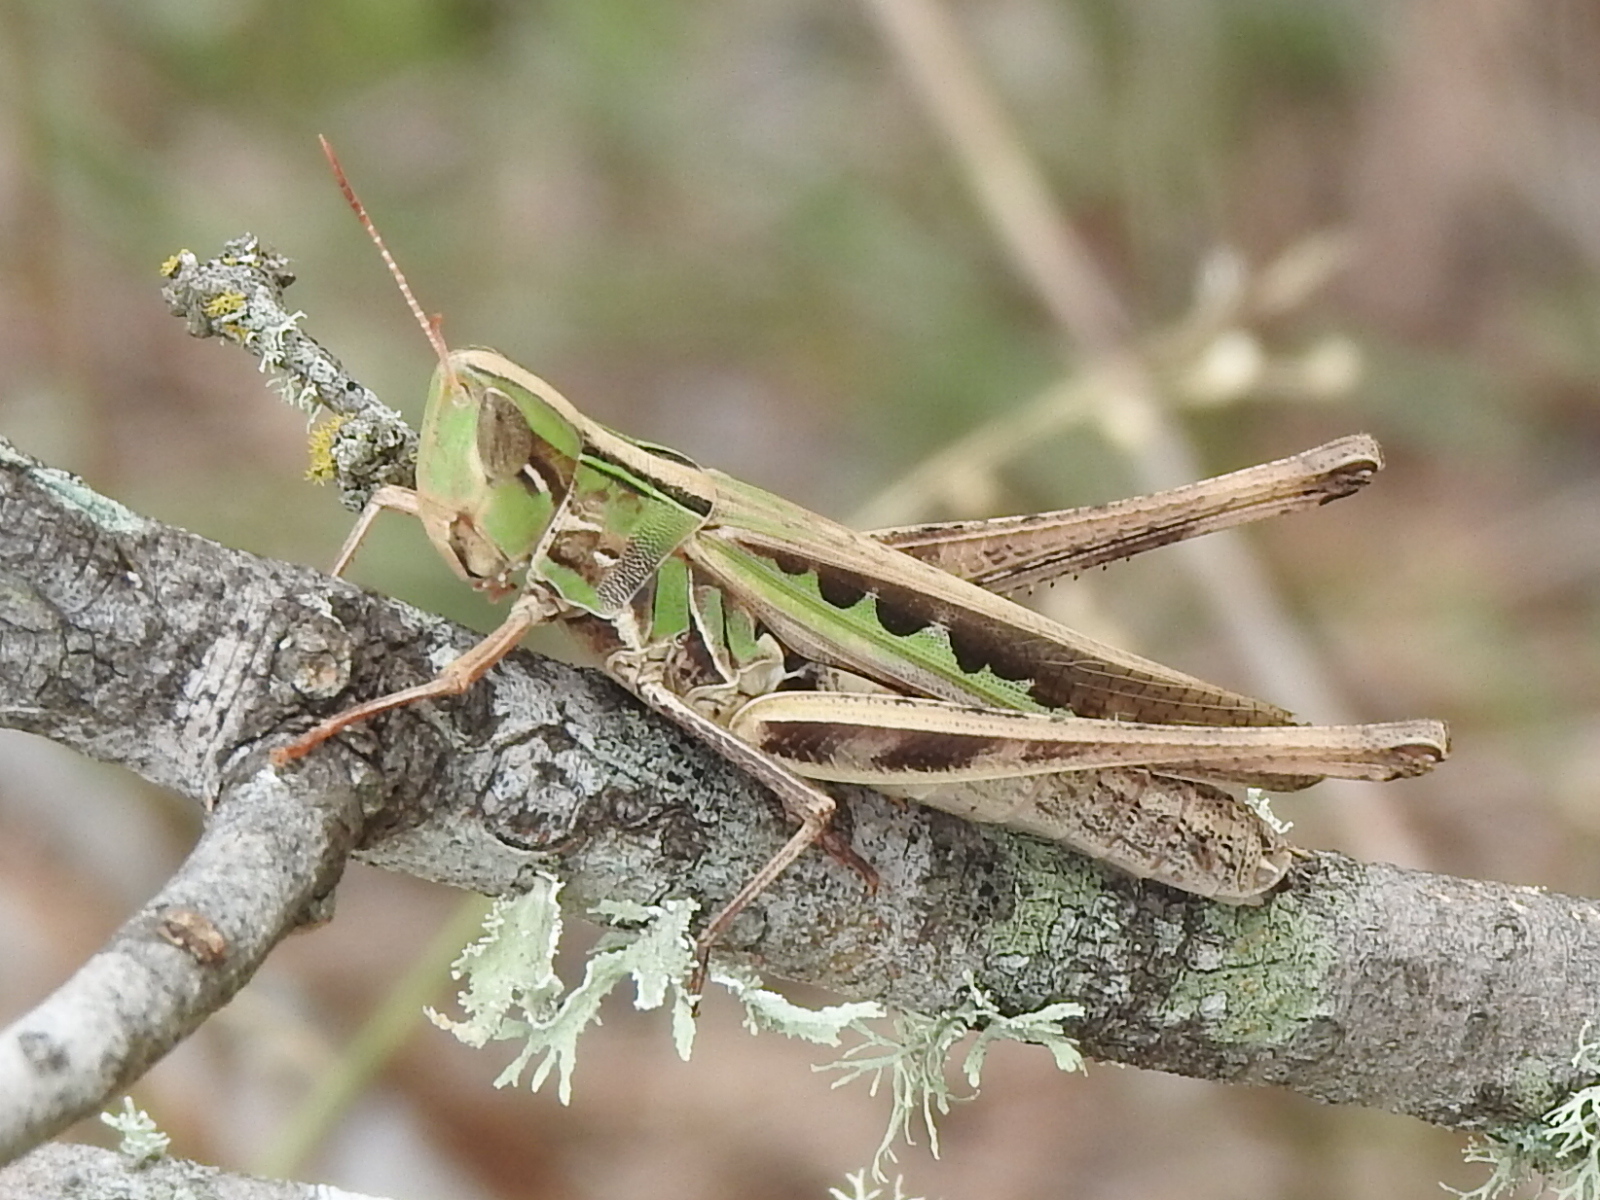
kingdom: Animalia
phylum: Arthropoda
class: Insecta
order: Orthoptera
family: Acrididae
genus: Syrbula
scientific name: Syrbula admirabilis
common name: Handsome grasshopper
